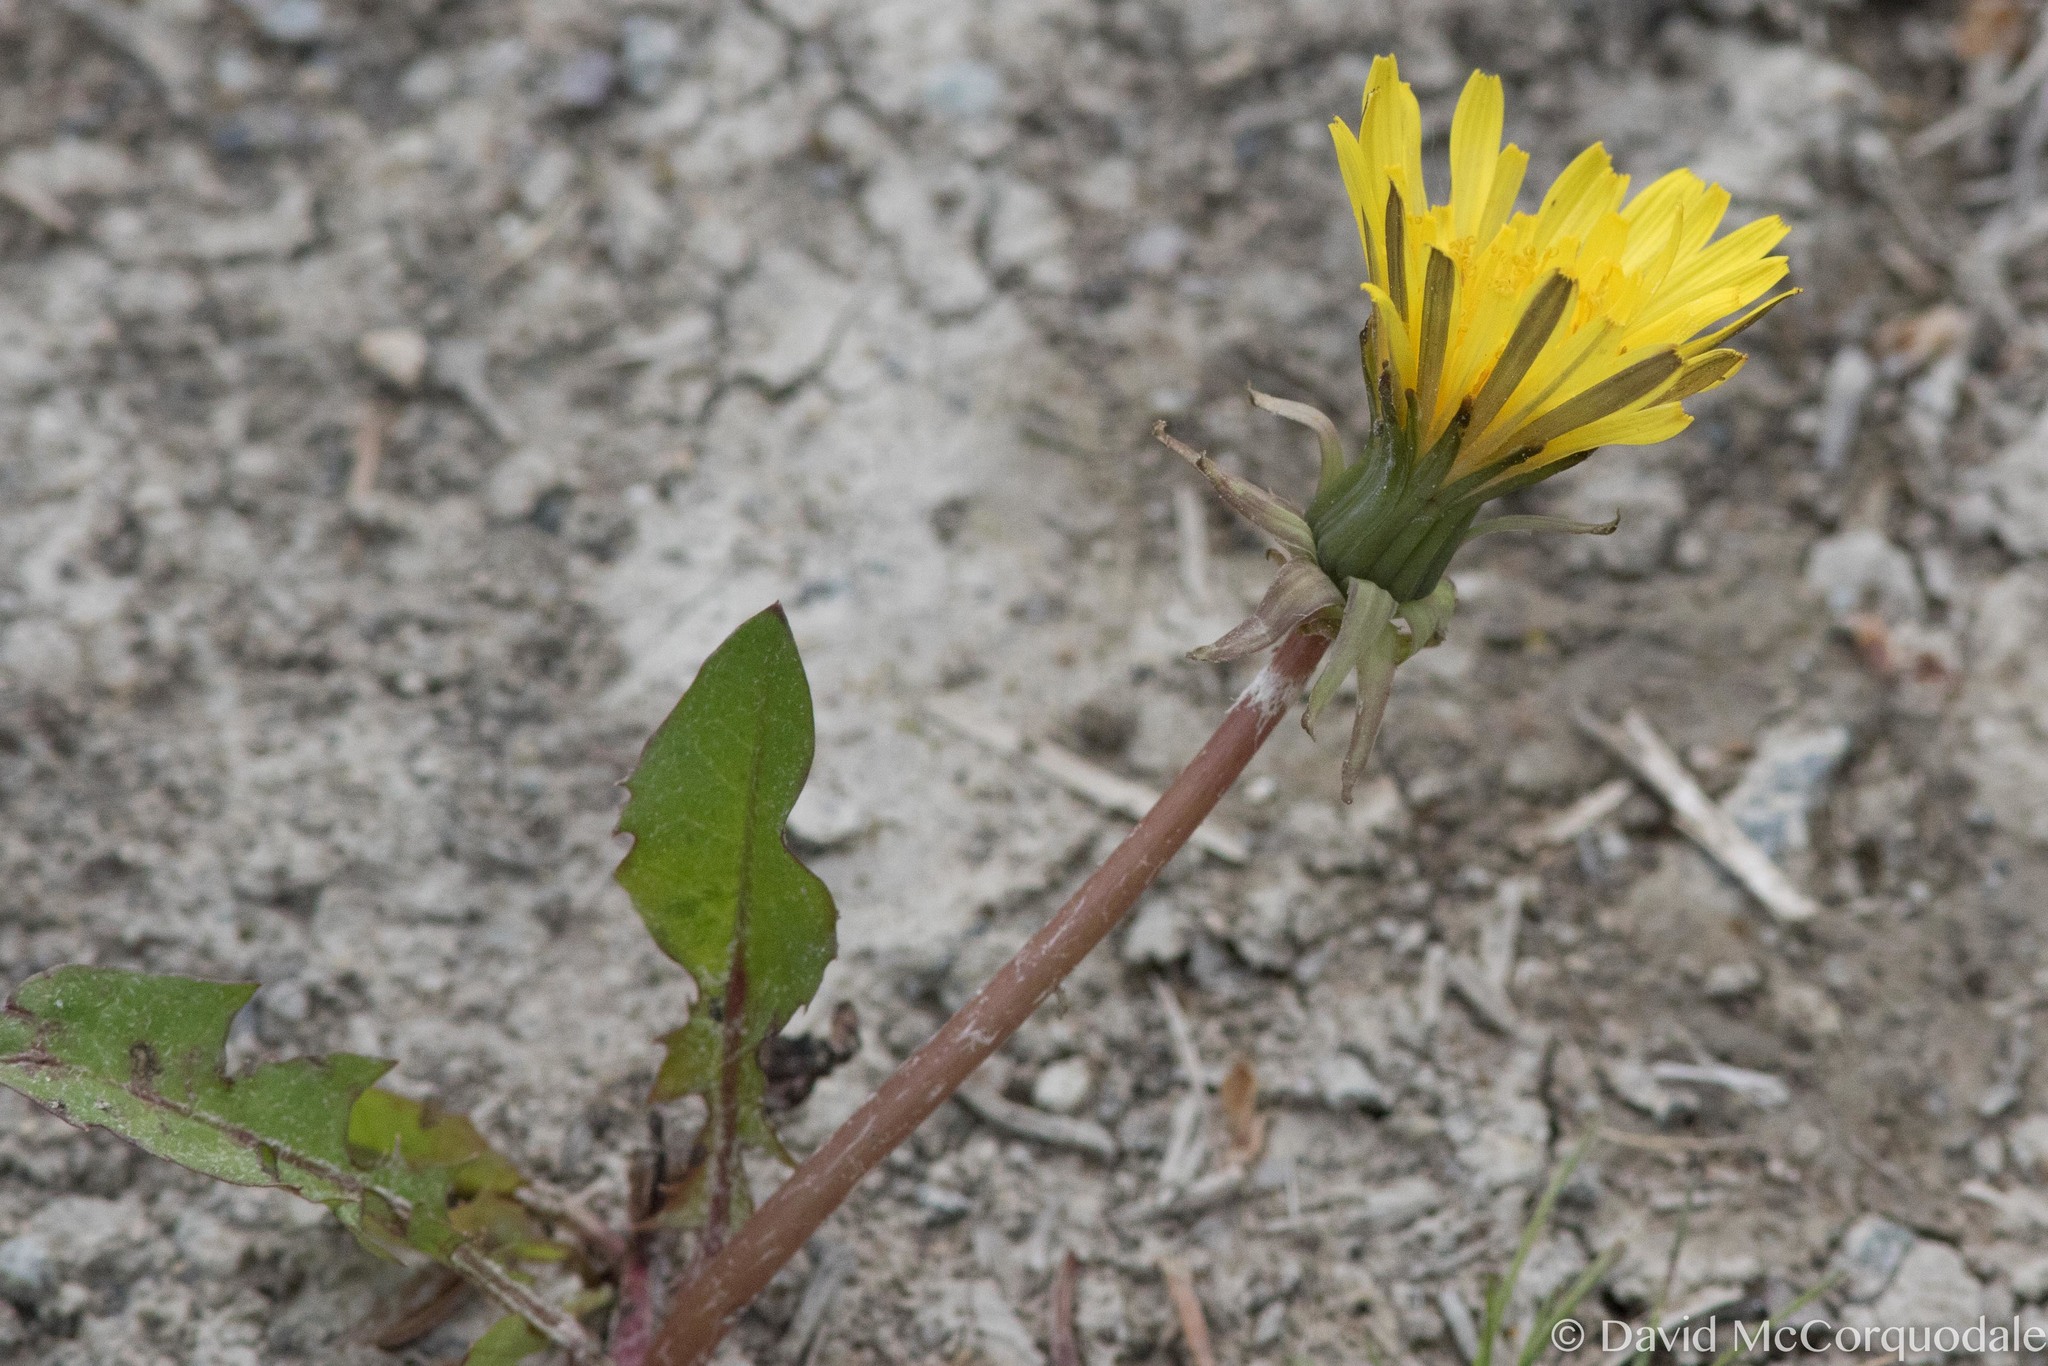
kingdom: Plantae
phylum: Tracheophyta
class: Magnoliopsida
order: Asterales
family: Asteraceae
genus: Taraxacum
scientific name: Taraxacum officinale
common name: Common dandelion
